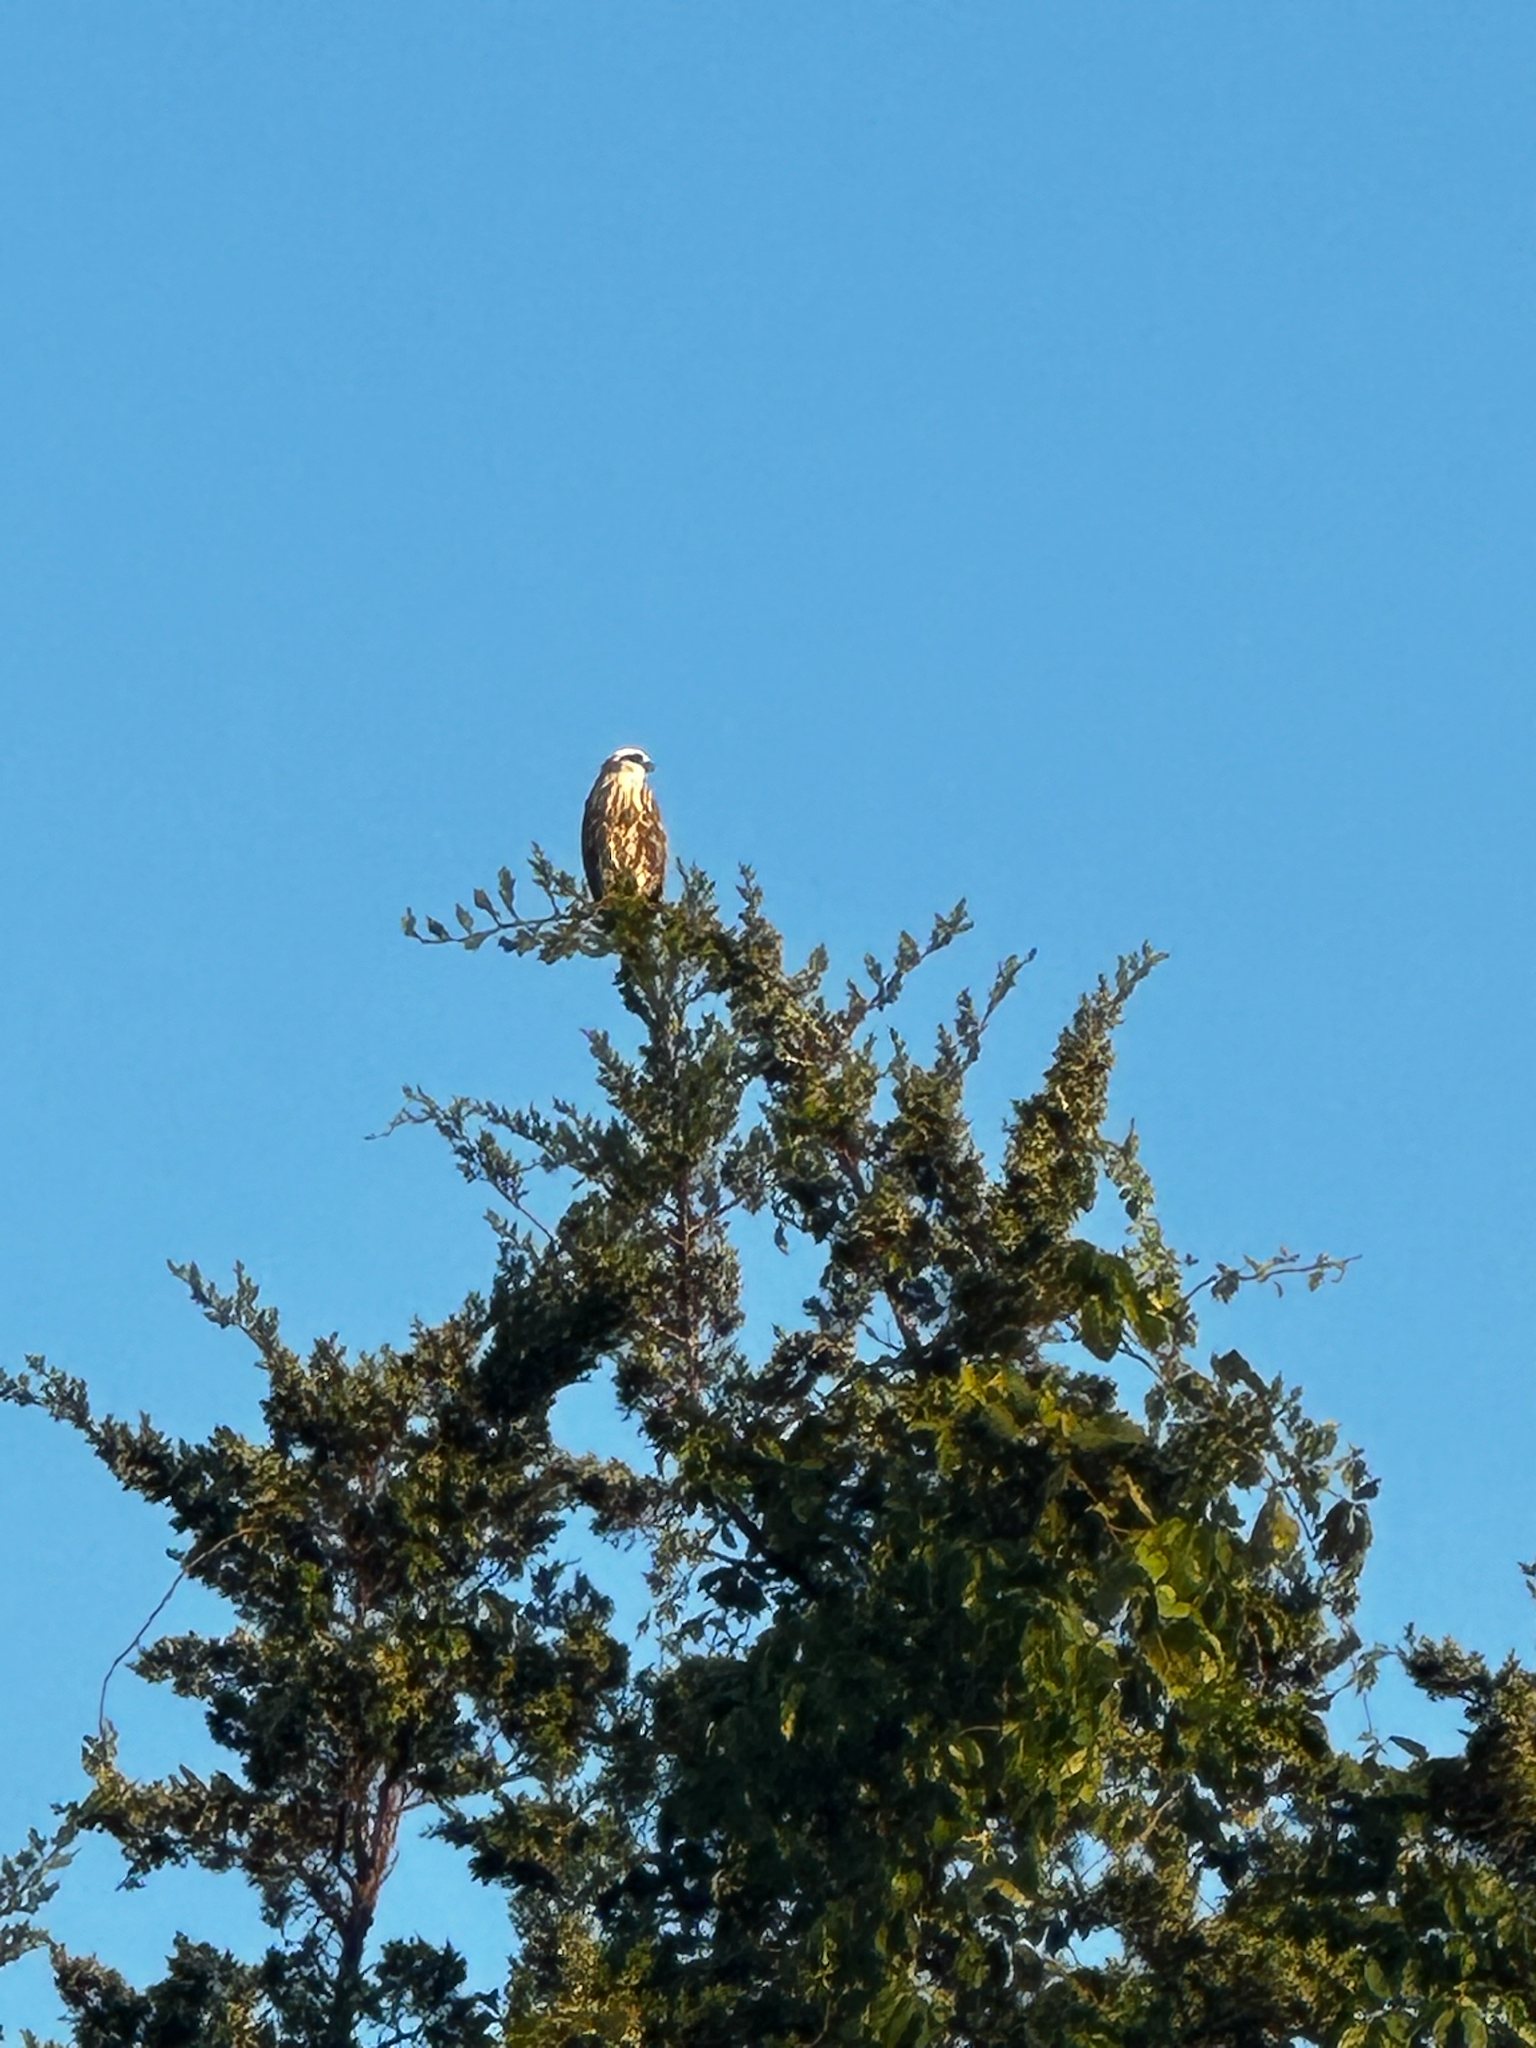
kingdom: Animalia
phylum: Chordata
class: Aves
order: Accipitriformes
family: Accipitridae
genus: Ictinia
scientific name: Ictinia mississippiensis
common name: Mississippi kite
